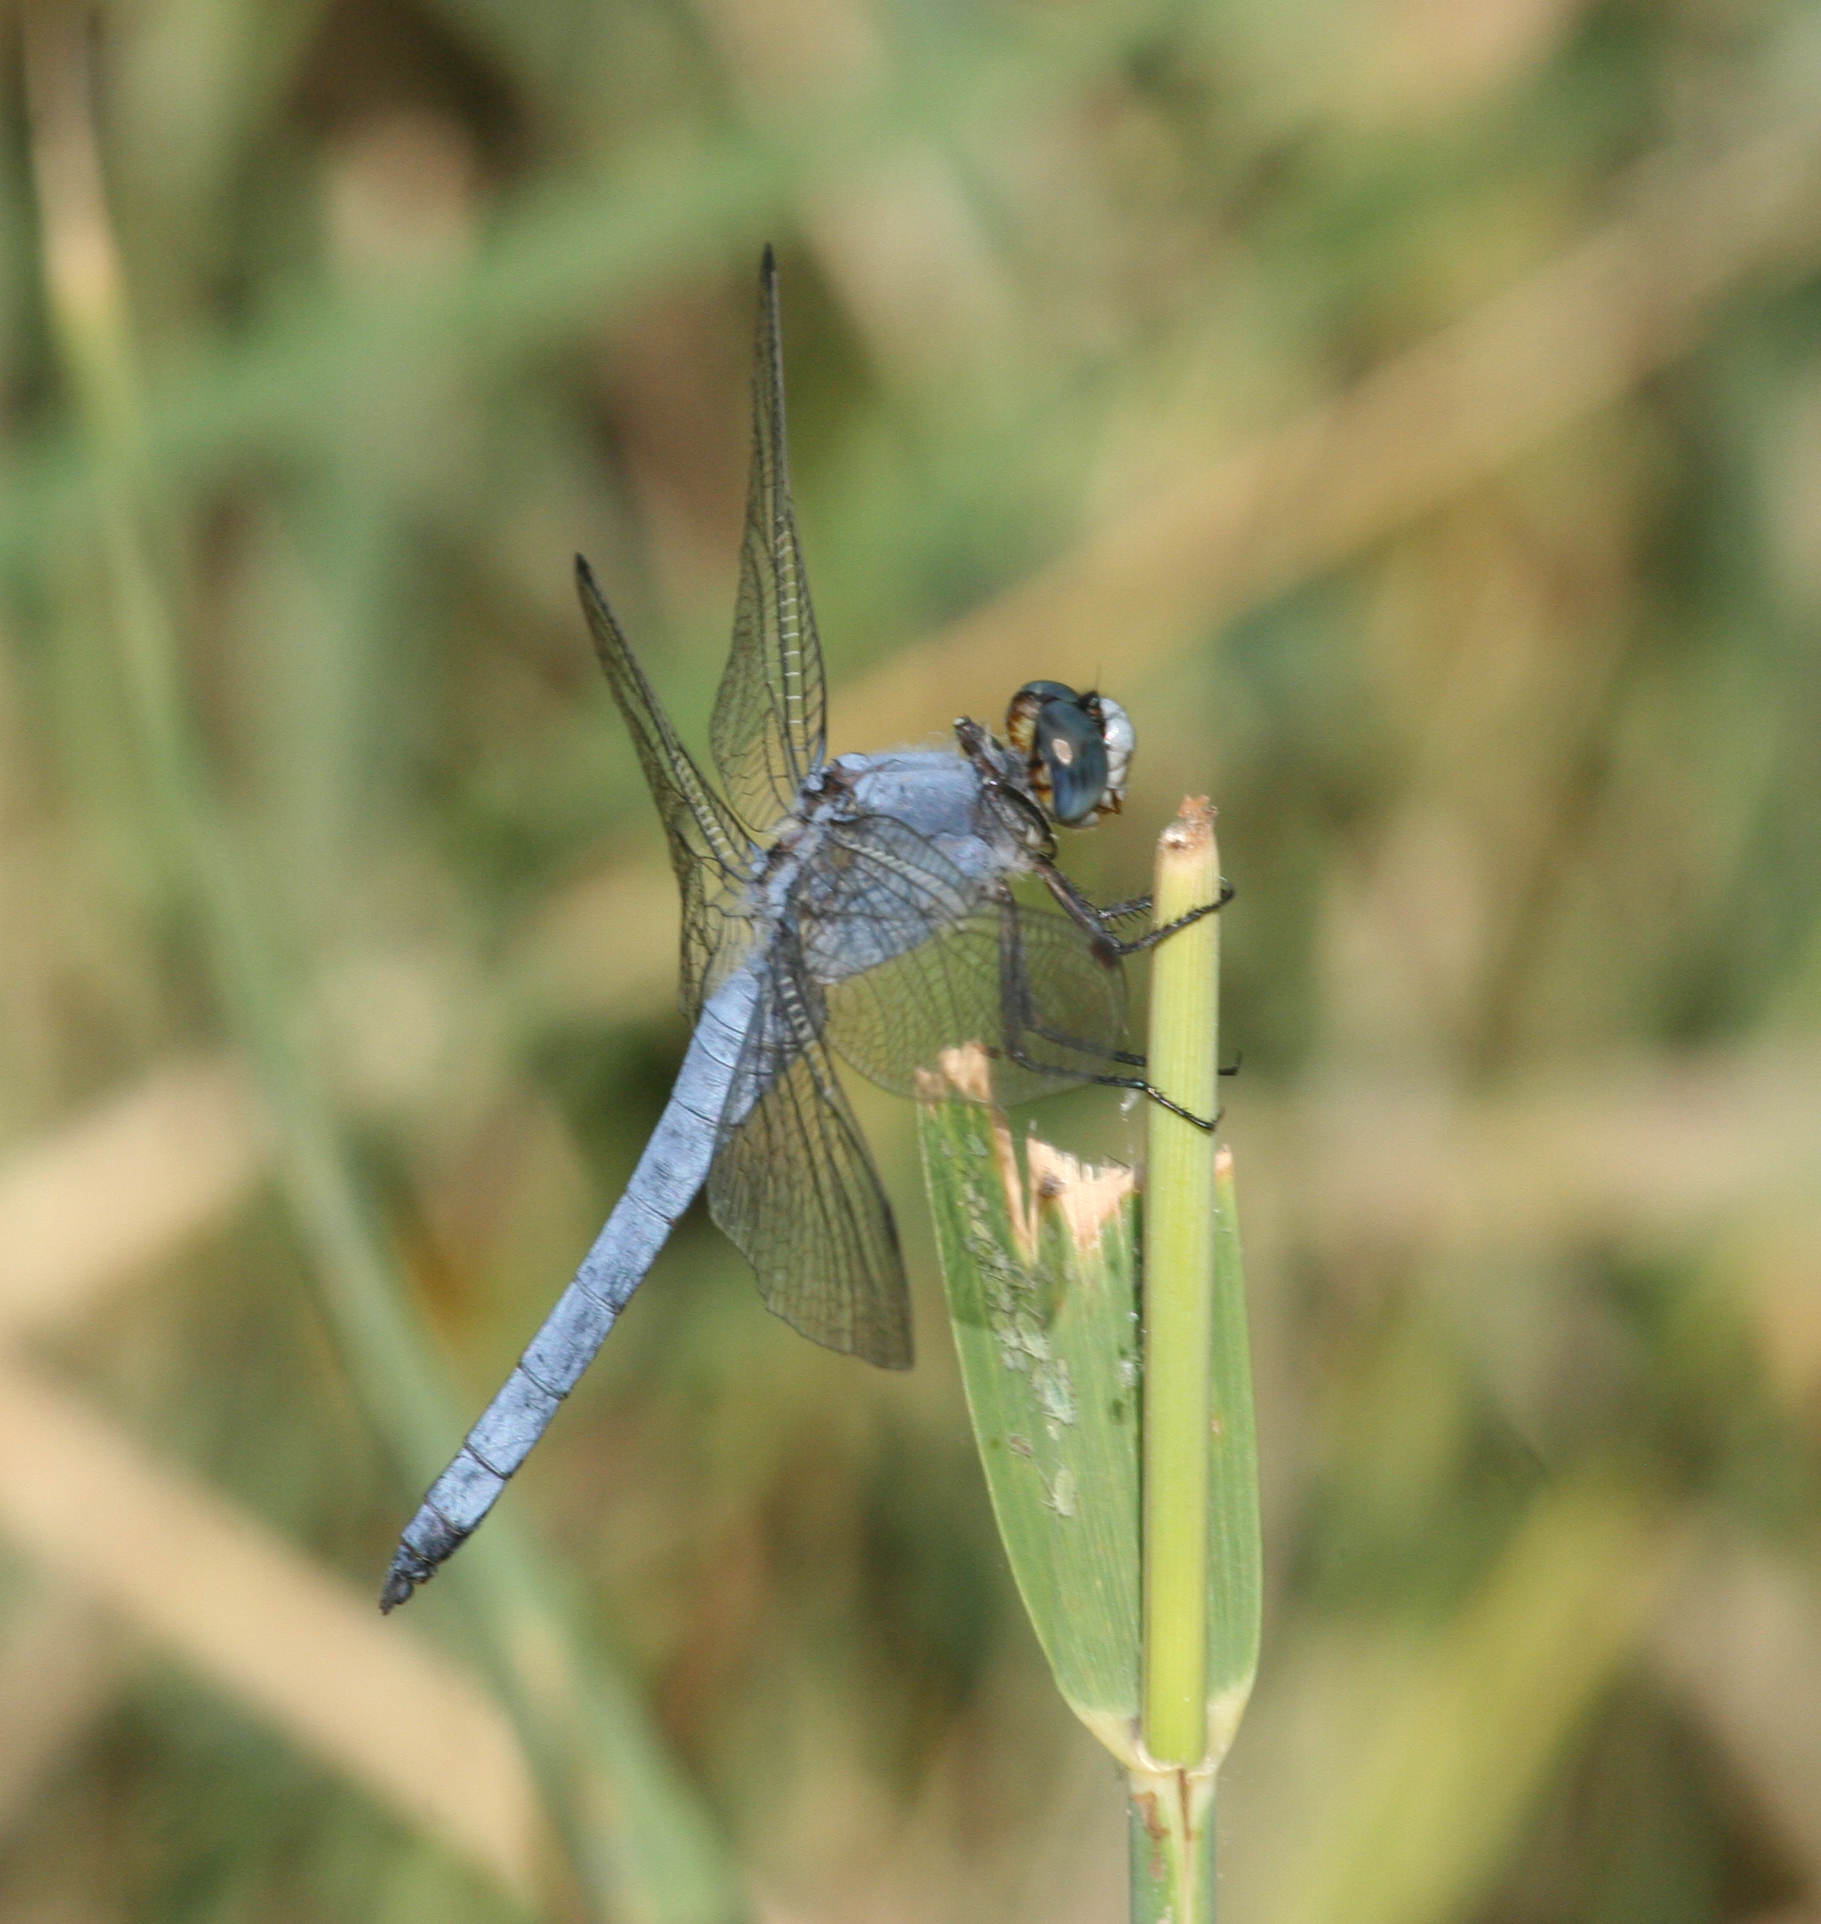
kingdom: Animalia
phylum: Arthropoda
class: Insecta
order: Odonata
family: Libellulidae
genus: Orthetrum
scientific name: Orthetrum brunneum
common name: Southern skimmer
